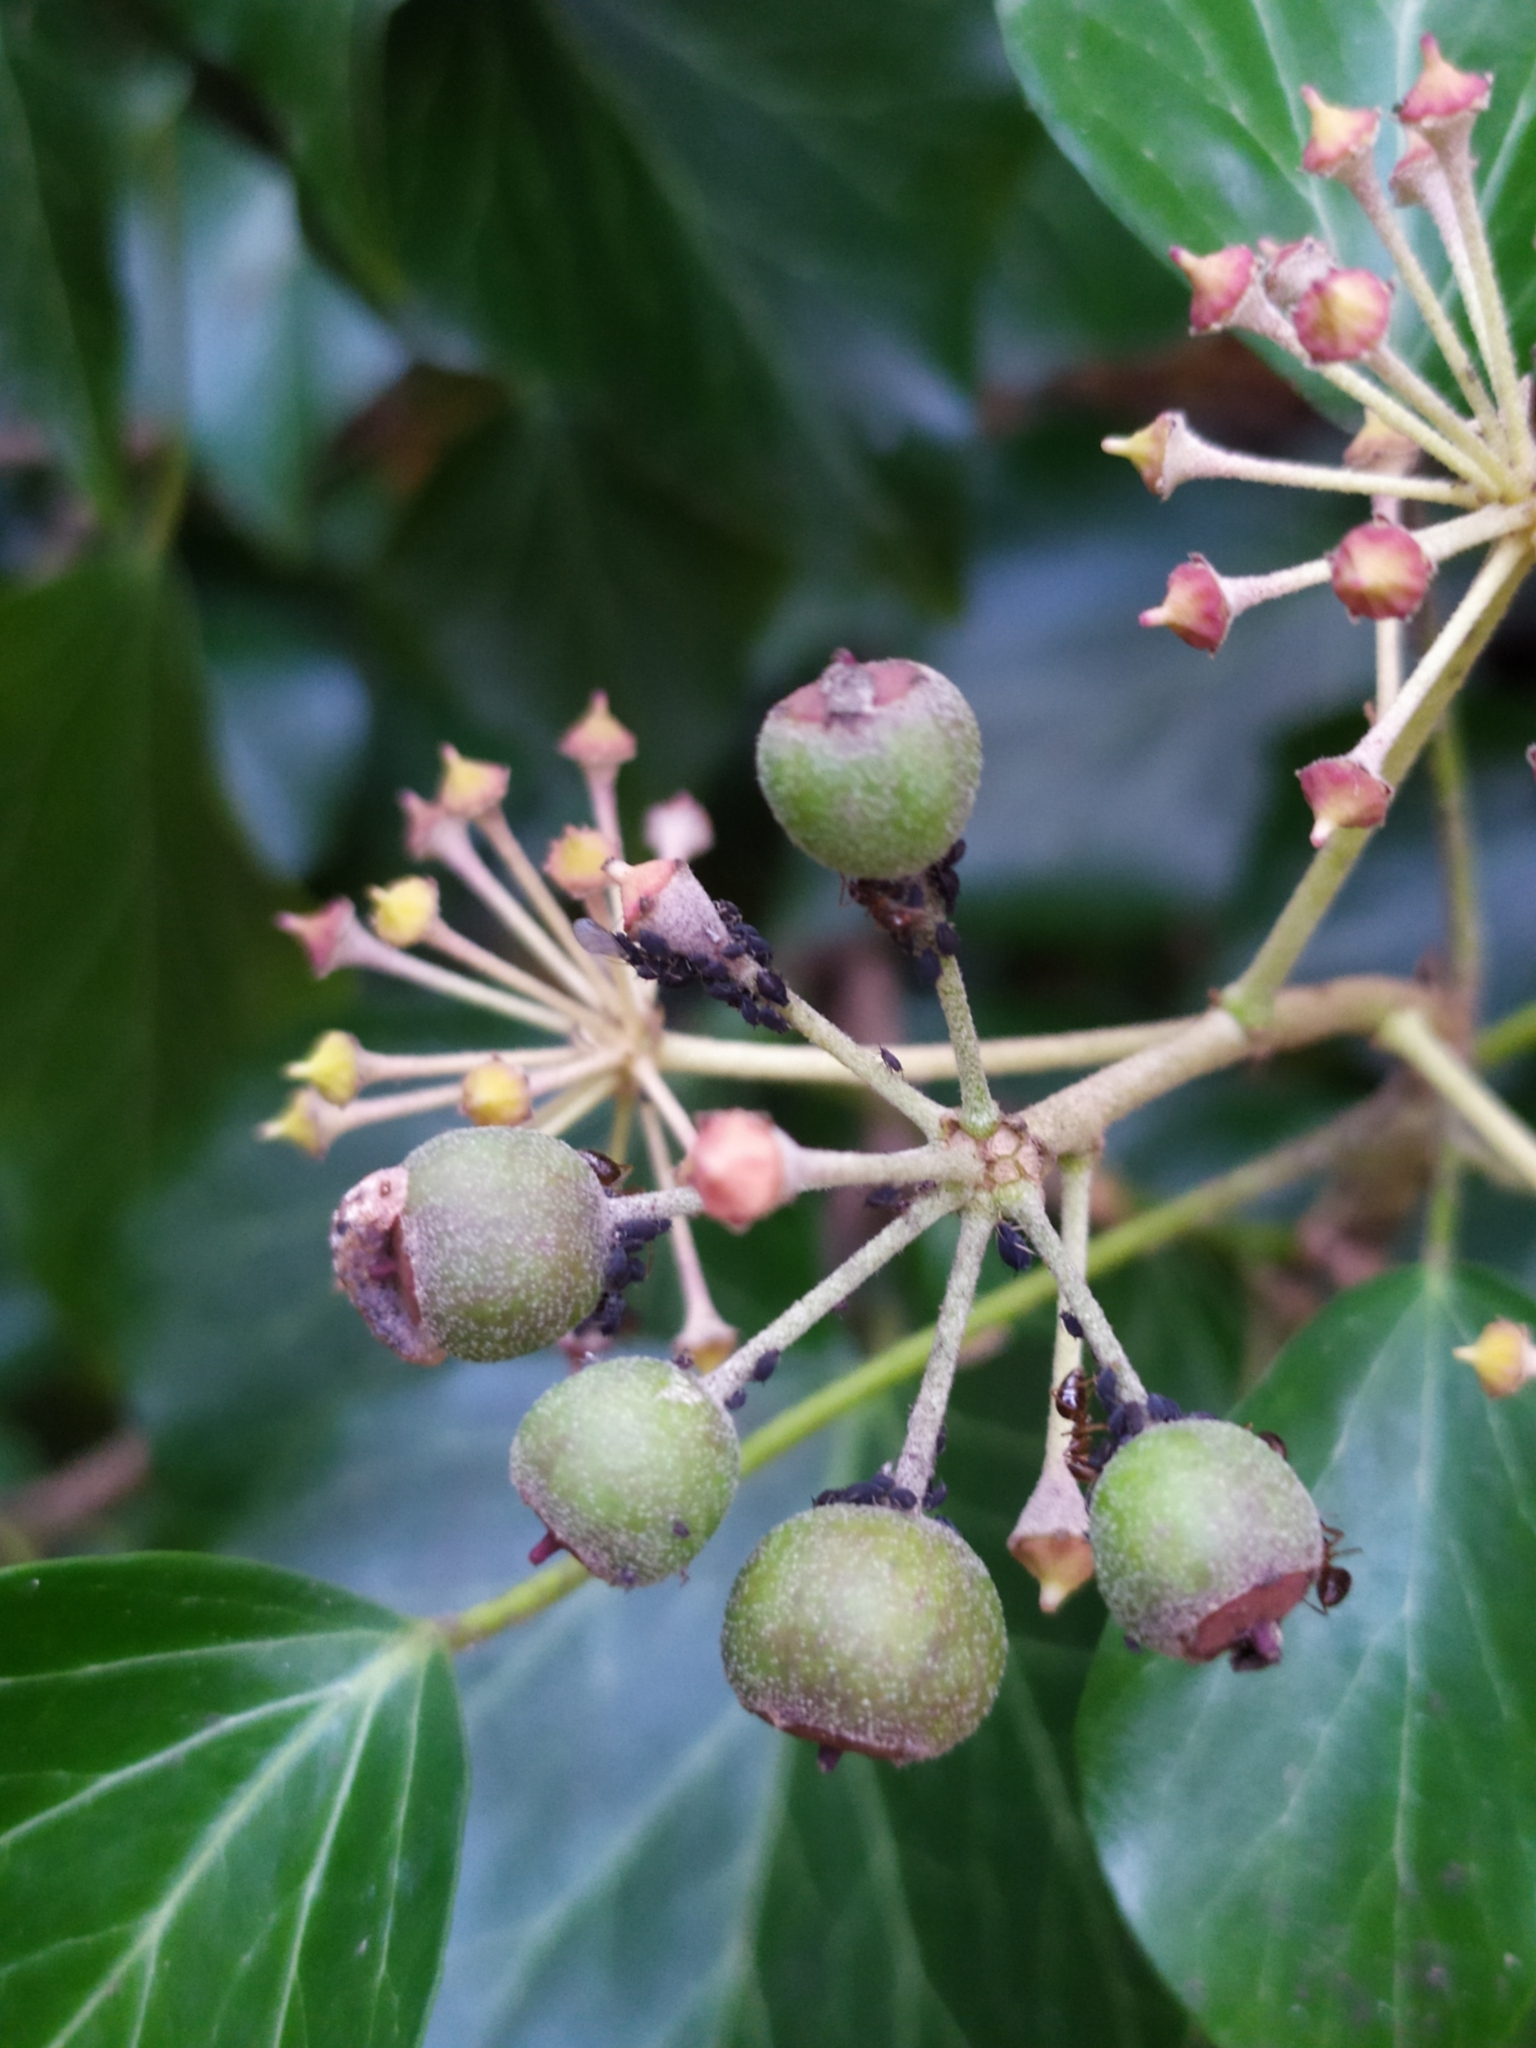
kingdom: Animalia
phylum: Arthropoda
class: Insecta
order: Hemiptera
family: Aphididae
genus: Aphis
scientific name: Aphis hederae
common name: Ivy aphid
